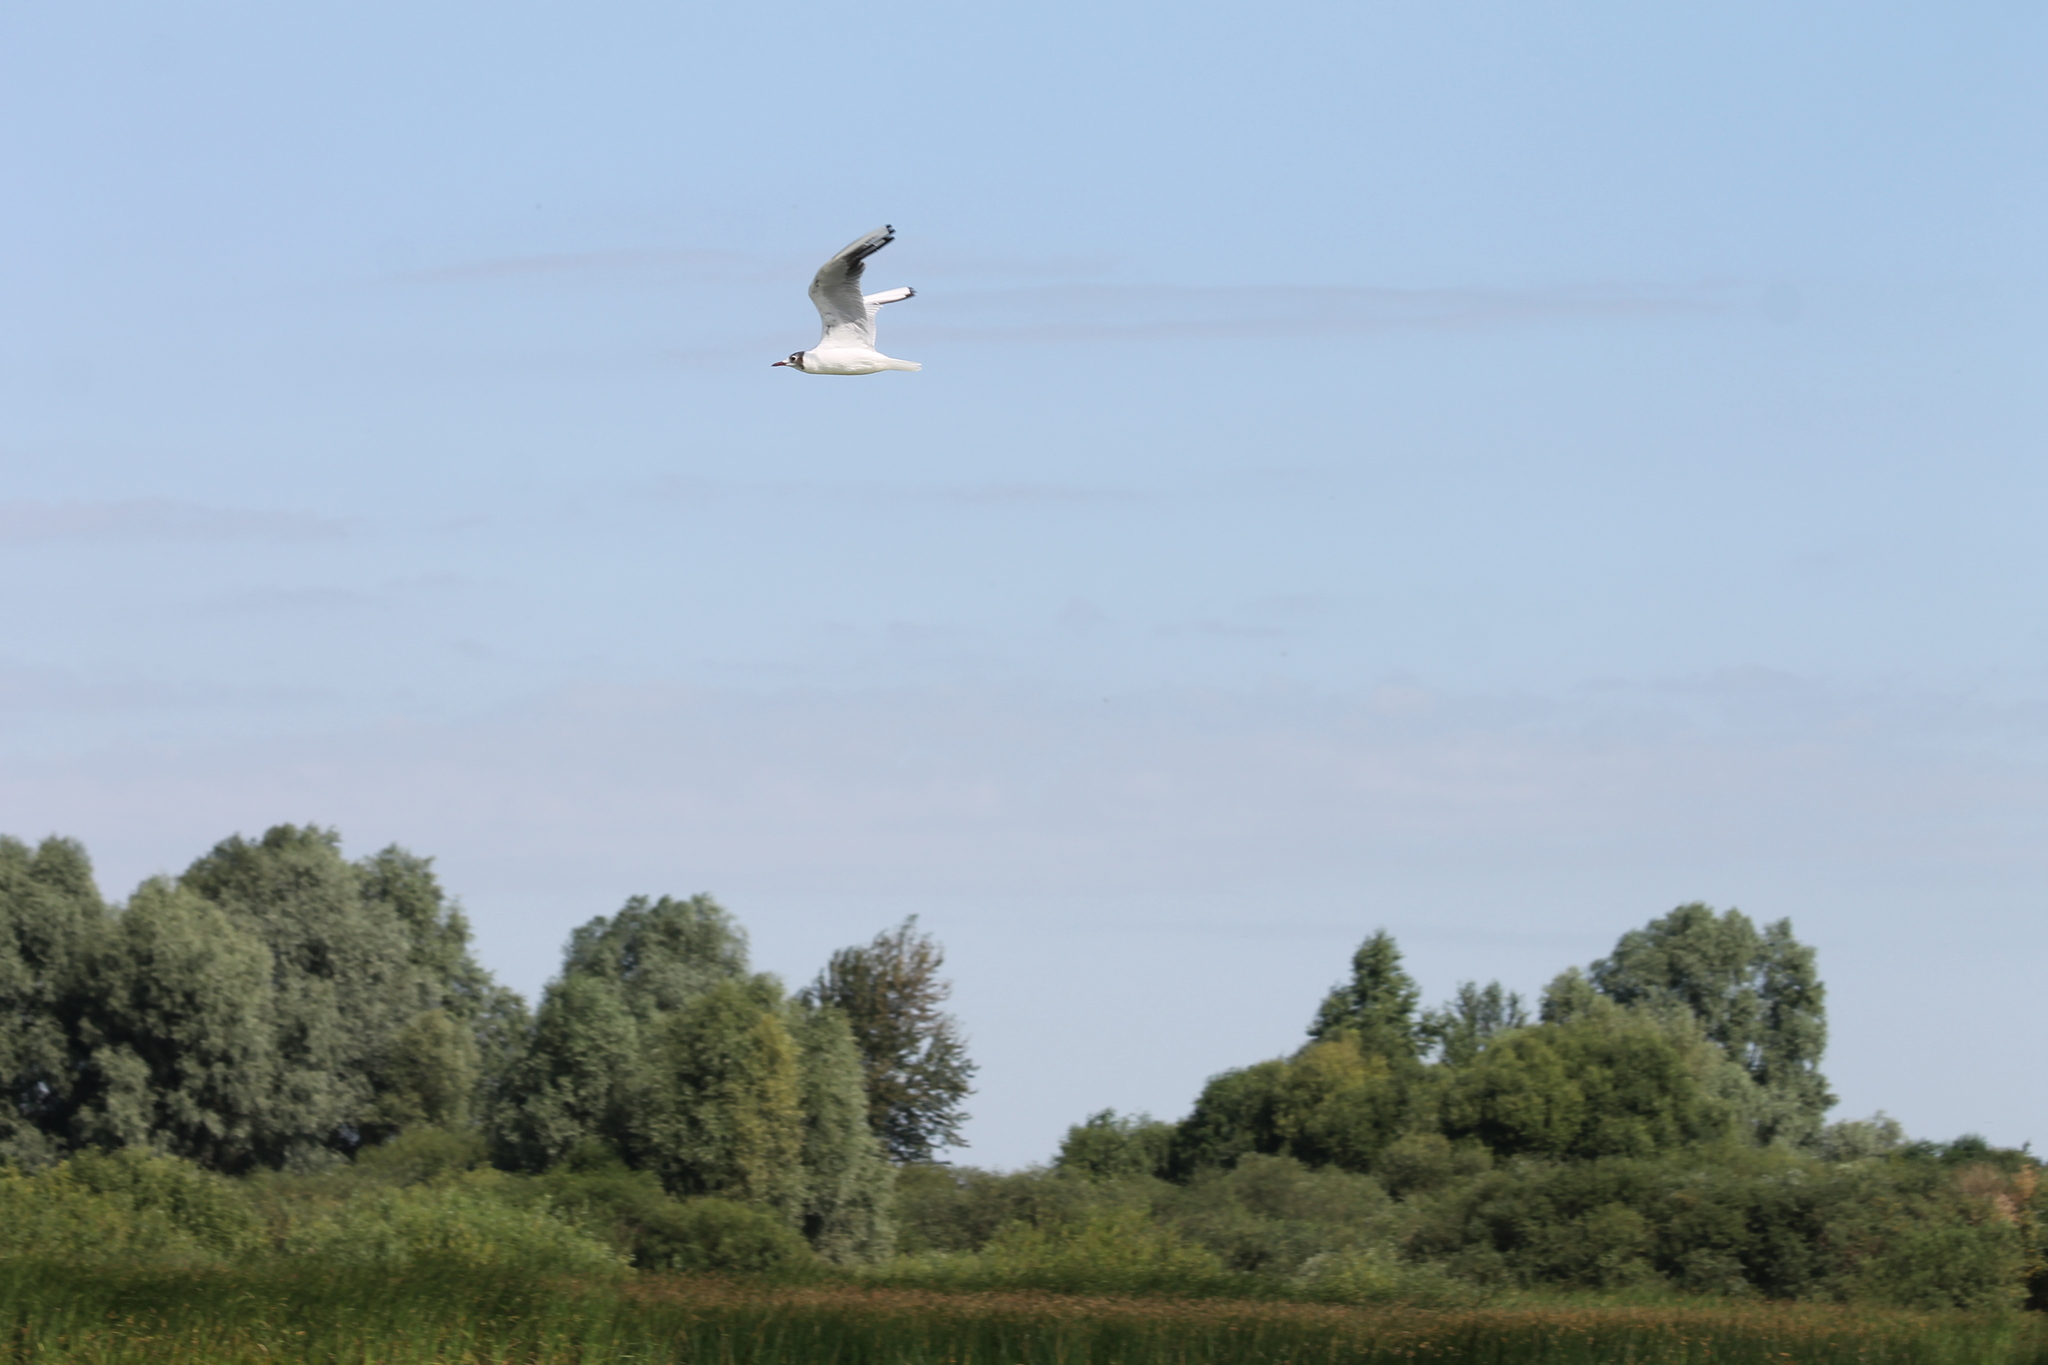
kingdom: Animalia
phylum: Chordata
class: Aves
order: Charadriiformes
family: Laridae
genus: Chroicocephalus
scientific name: Chroicocephalus ridibundus
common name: Black-headed gull
